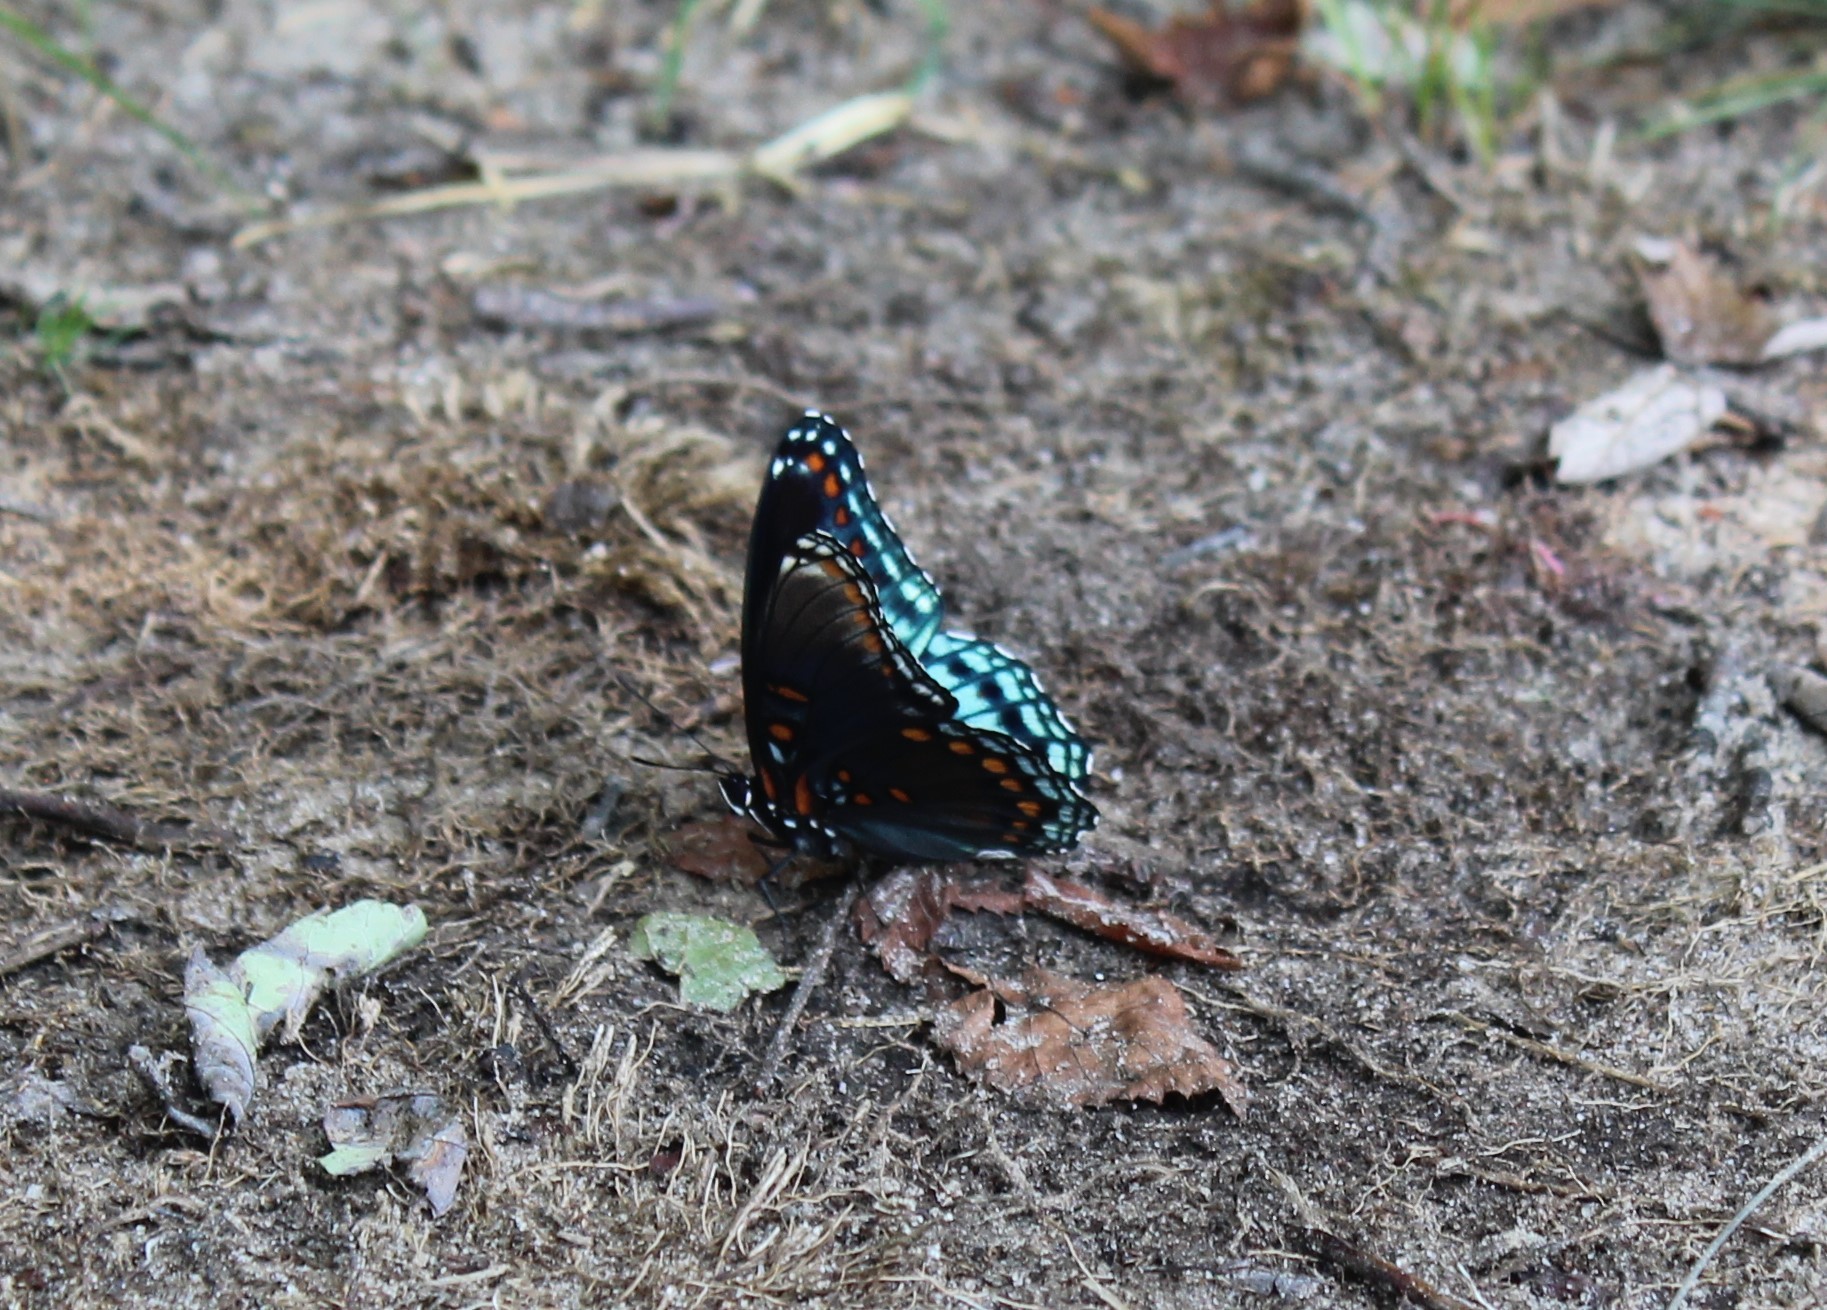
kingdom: Animalia
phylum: Arthropoda
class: Insecta
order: Lepidoptera
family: Nymphalidae
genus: Limenitis
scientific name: Limenitis astyanax
